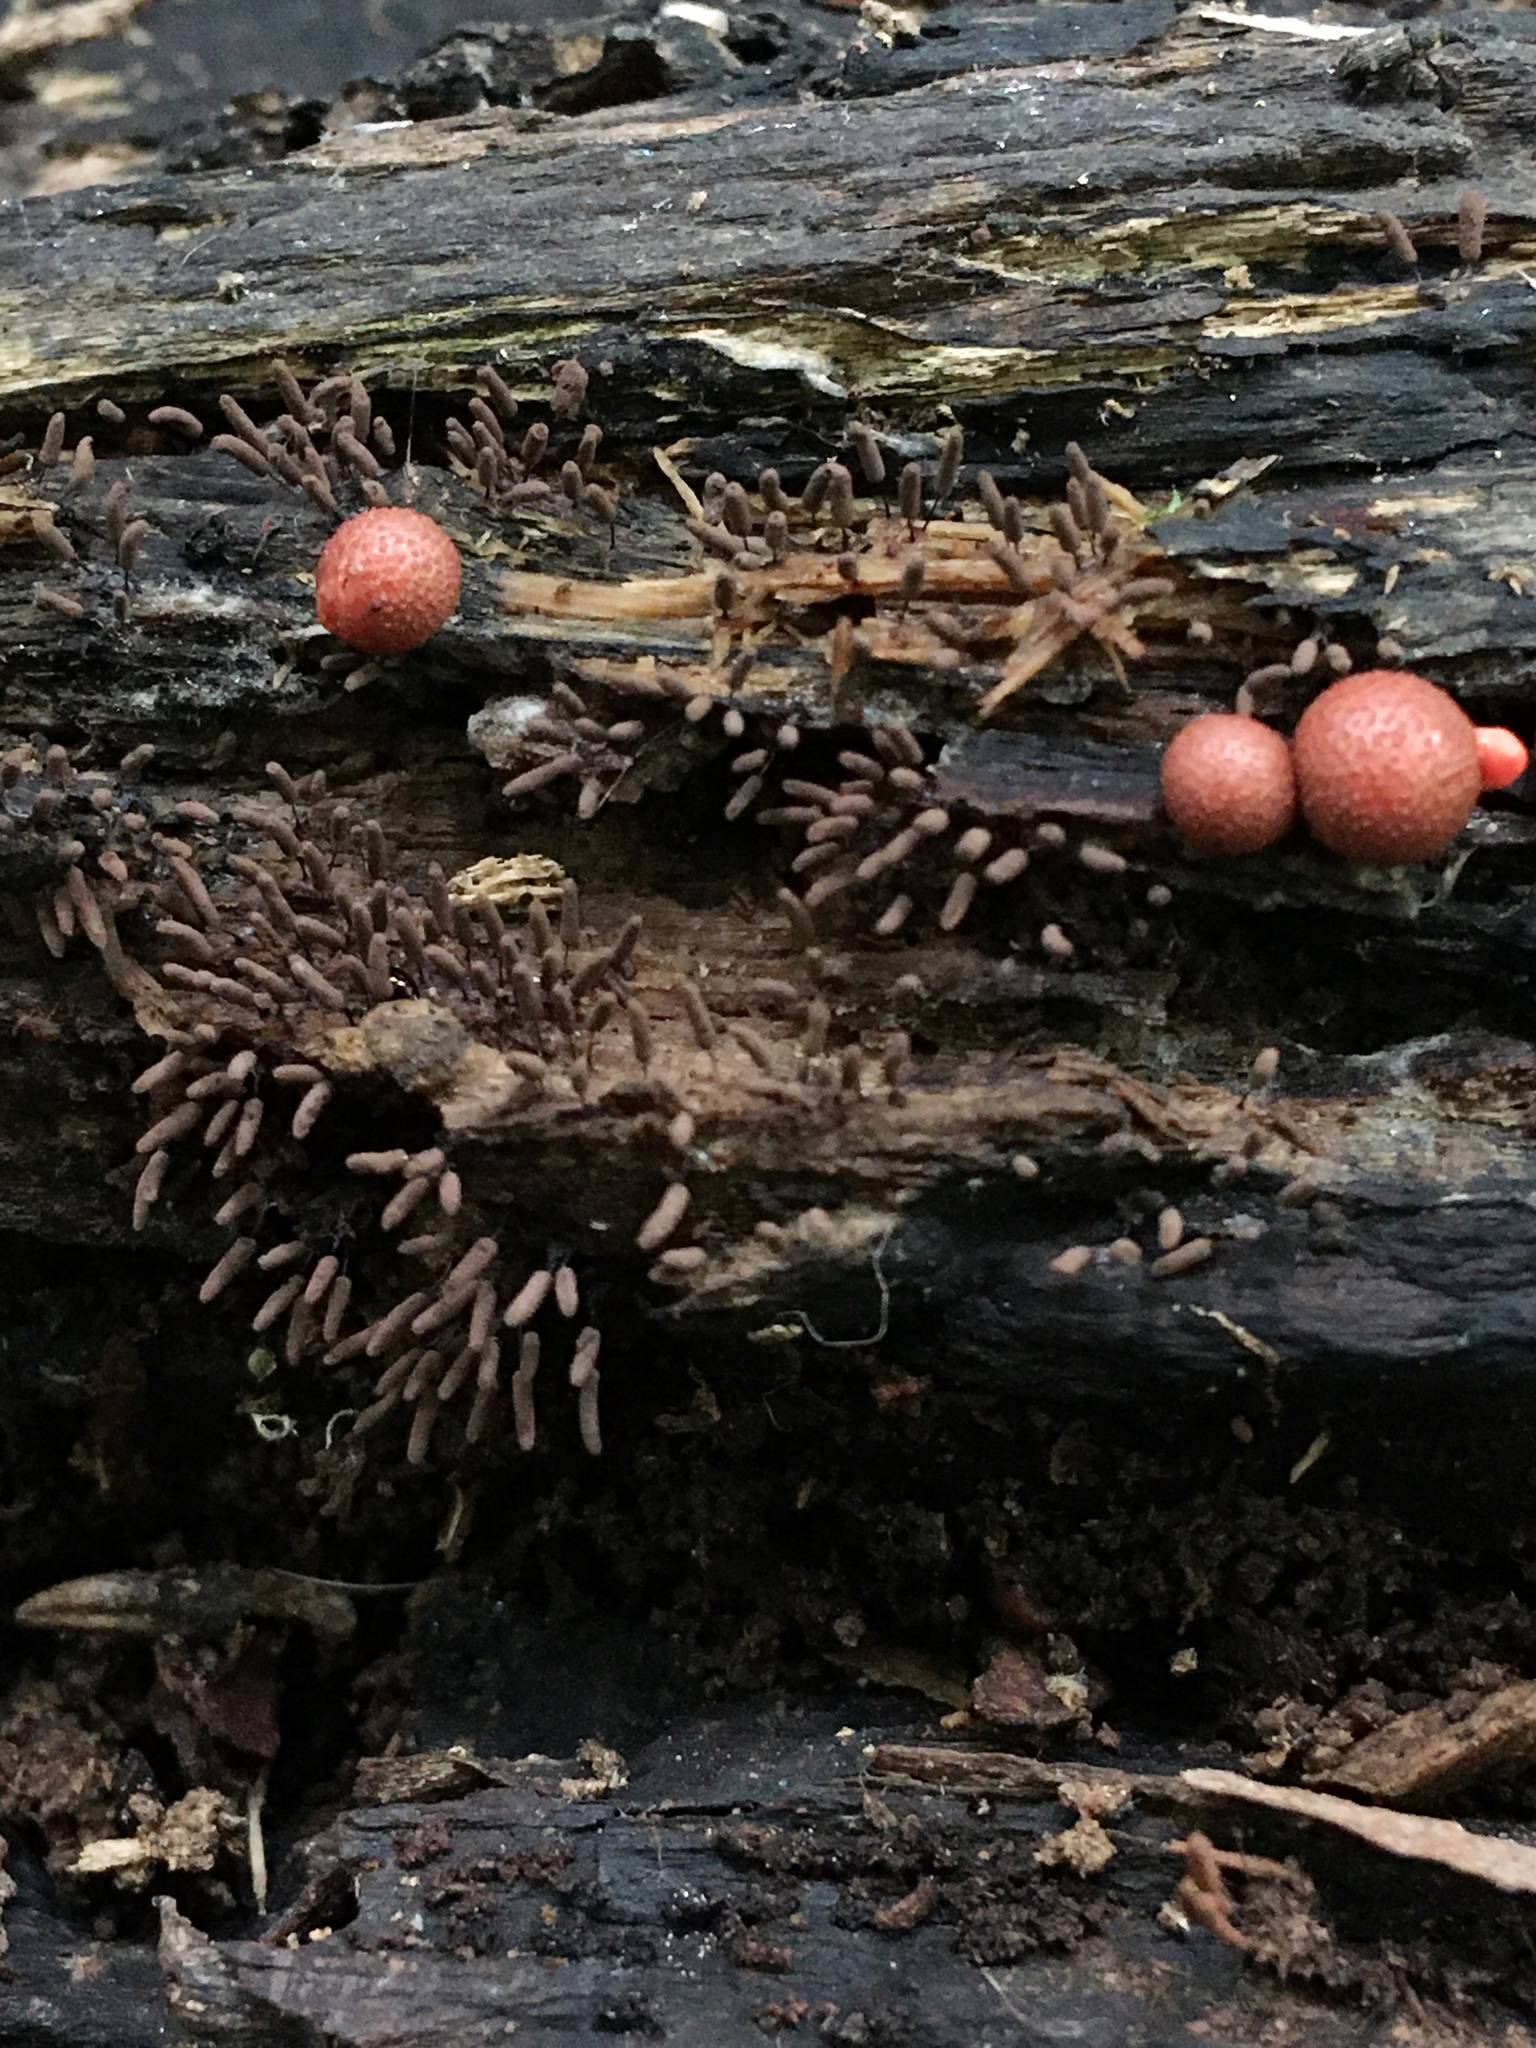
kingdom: Protozoa
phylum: Mycetozoa
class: Myxomycetes
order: Cribrariales
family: Tubiferaceae
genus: Lycogala
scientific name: Lycogala epidendrum
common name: Wolf's milk
